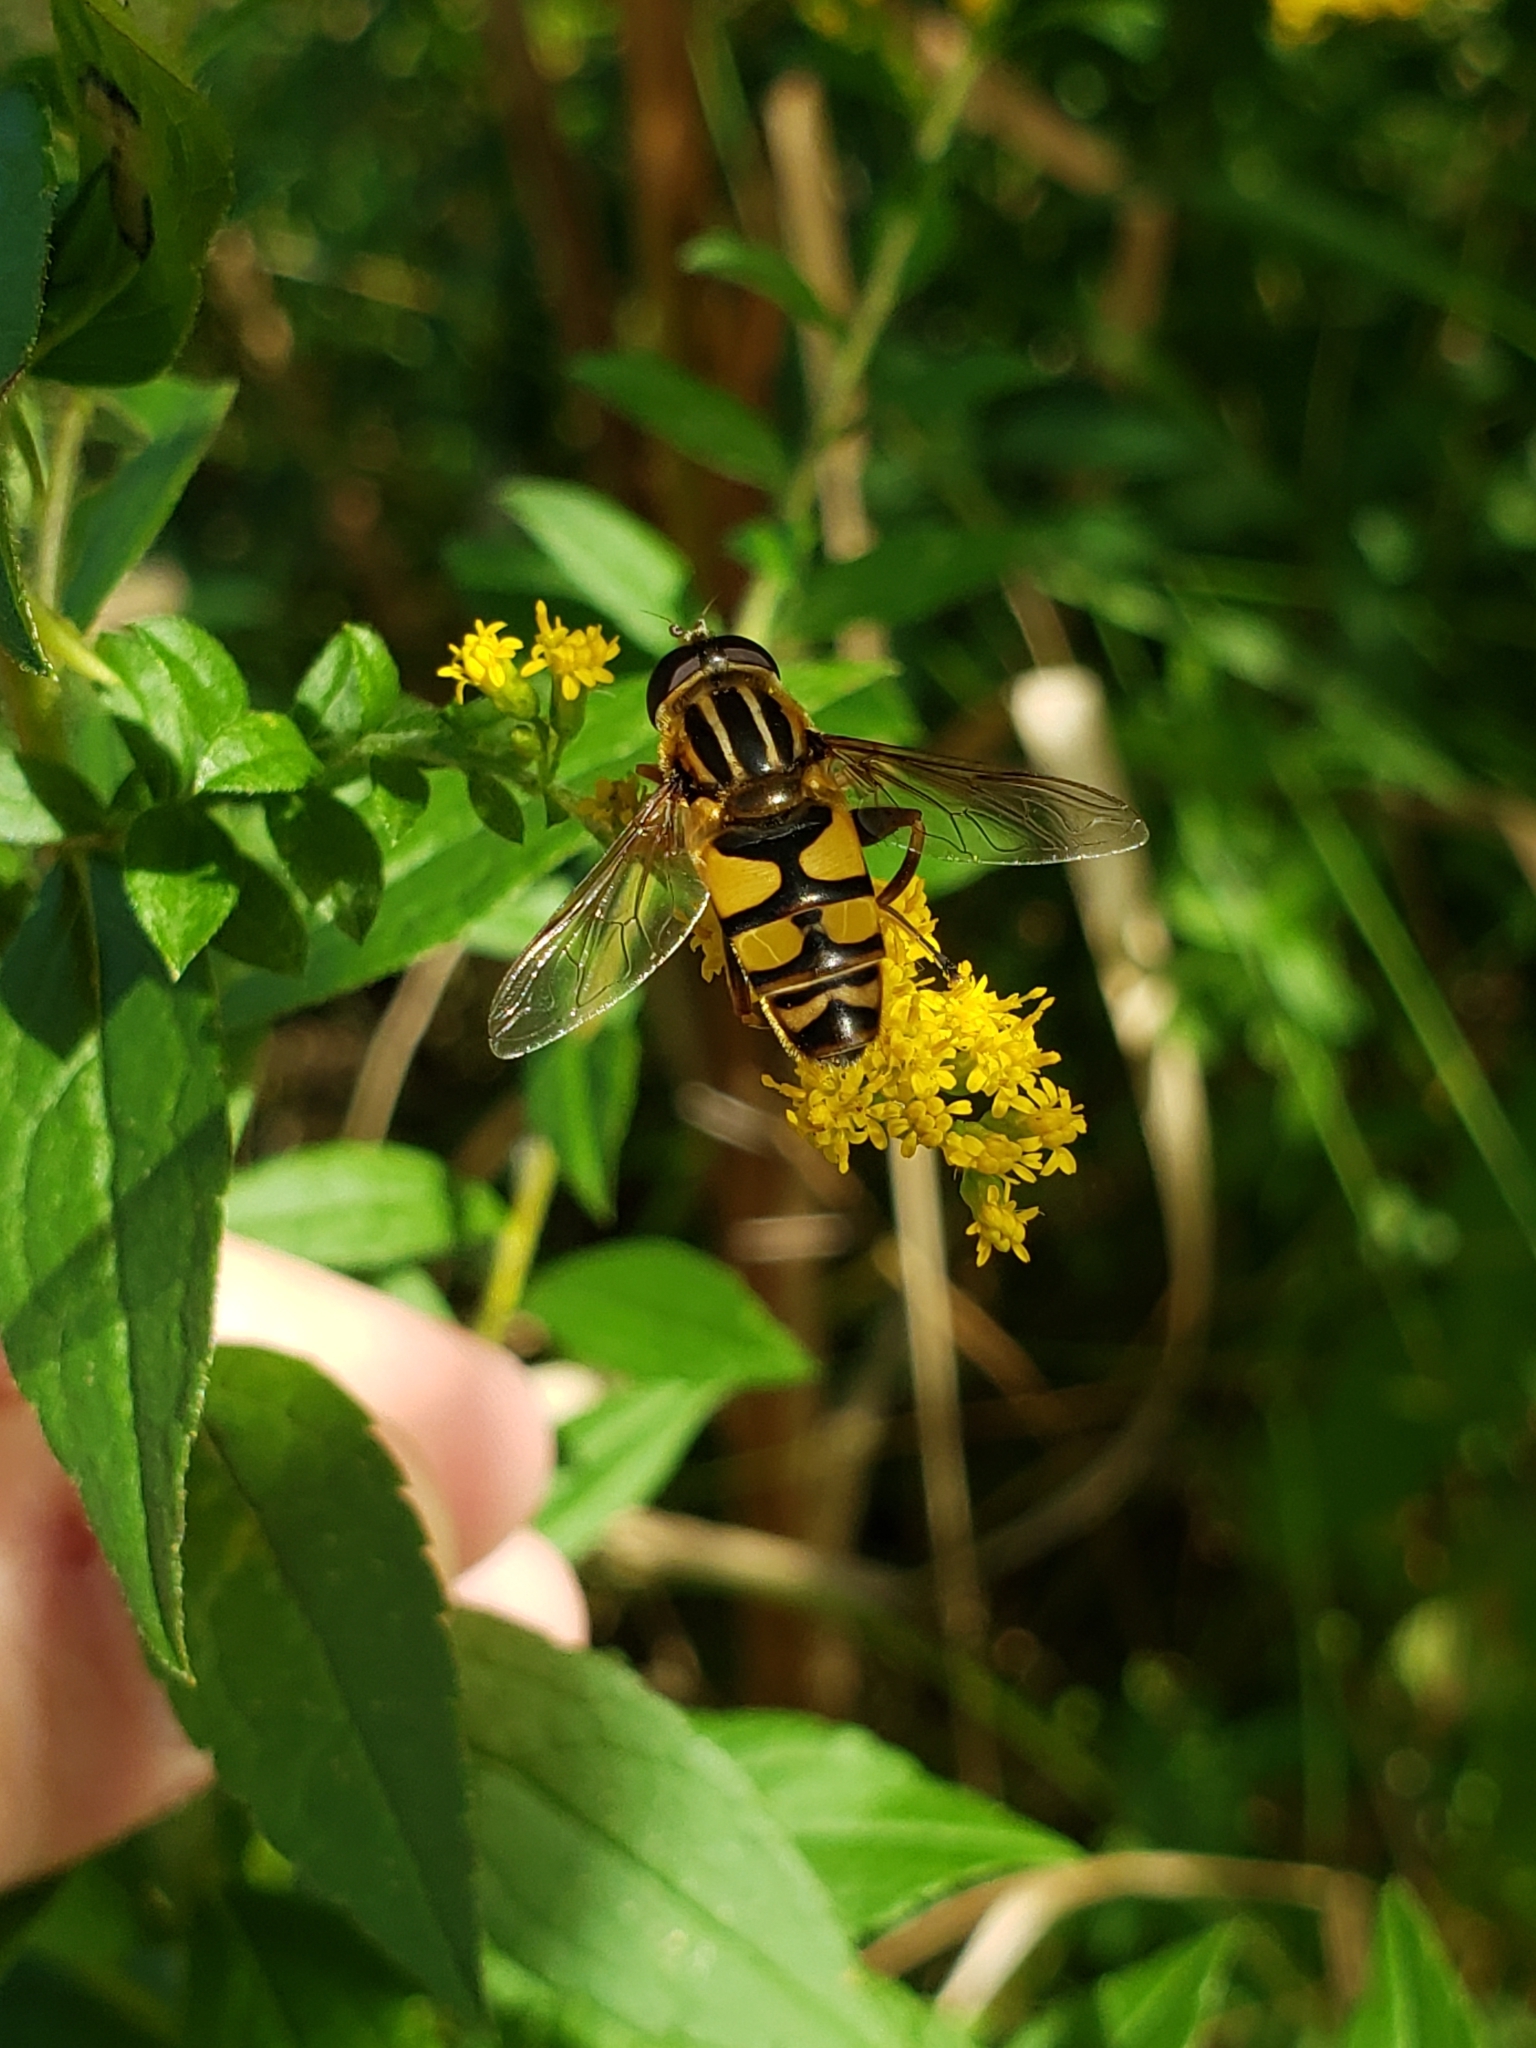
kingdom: Animalia
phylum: Arthropoda
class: Insecta
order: Diptera
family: Syrphidae
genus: Helophilus
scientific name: Helophilus fasciatus
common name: Narrow-headed marsh fly
